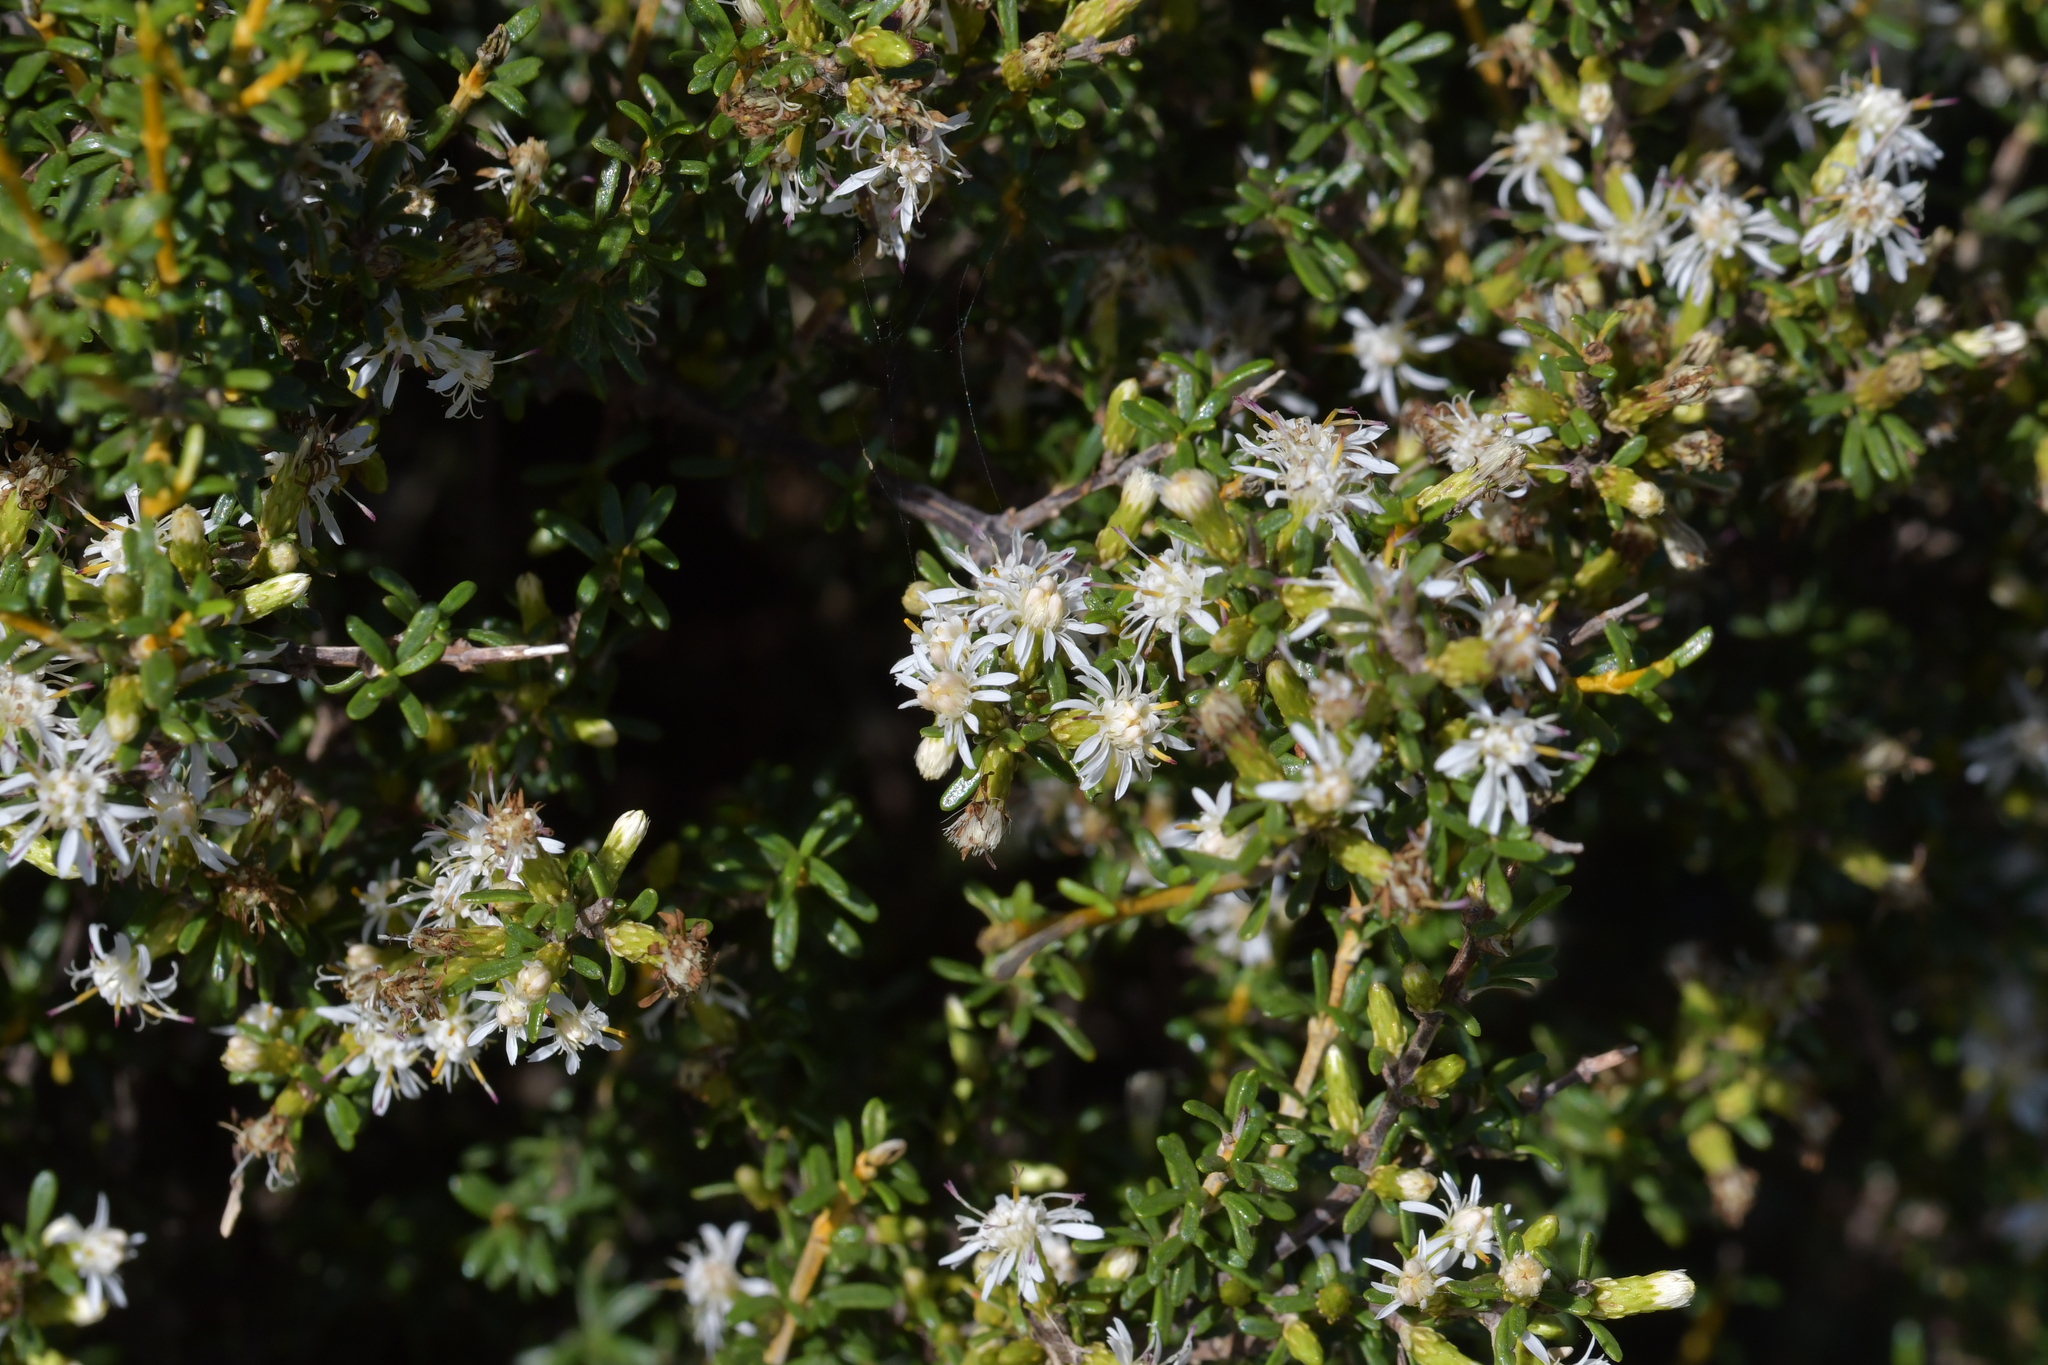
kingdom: Plantae
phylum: Tracheophyta
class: Magnoliopsida
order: Asterales
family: Asteraceae
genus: Olearia
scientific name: Olearia solandri
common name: Coastal daisybush
